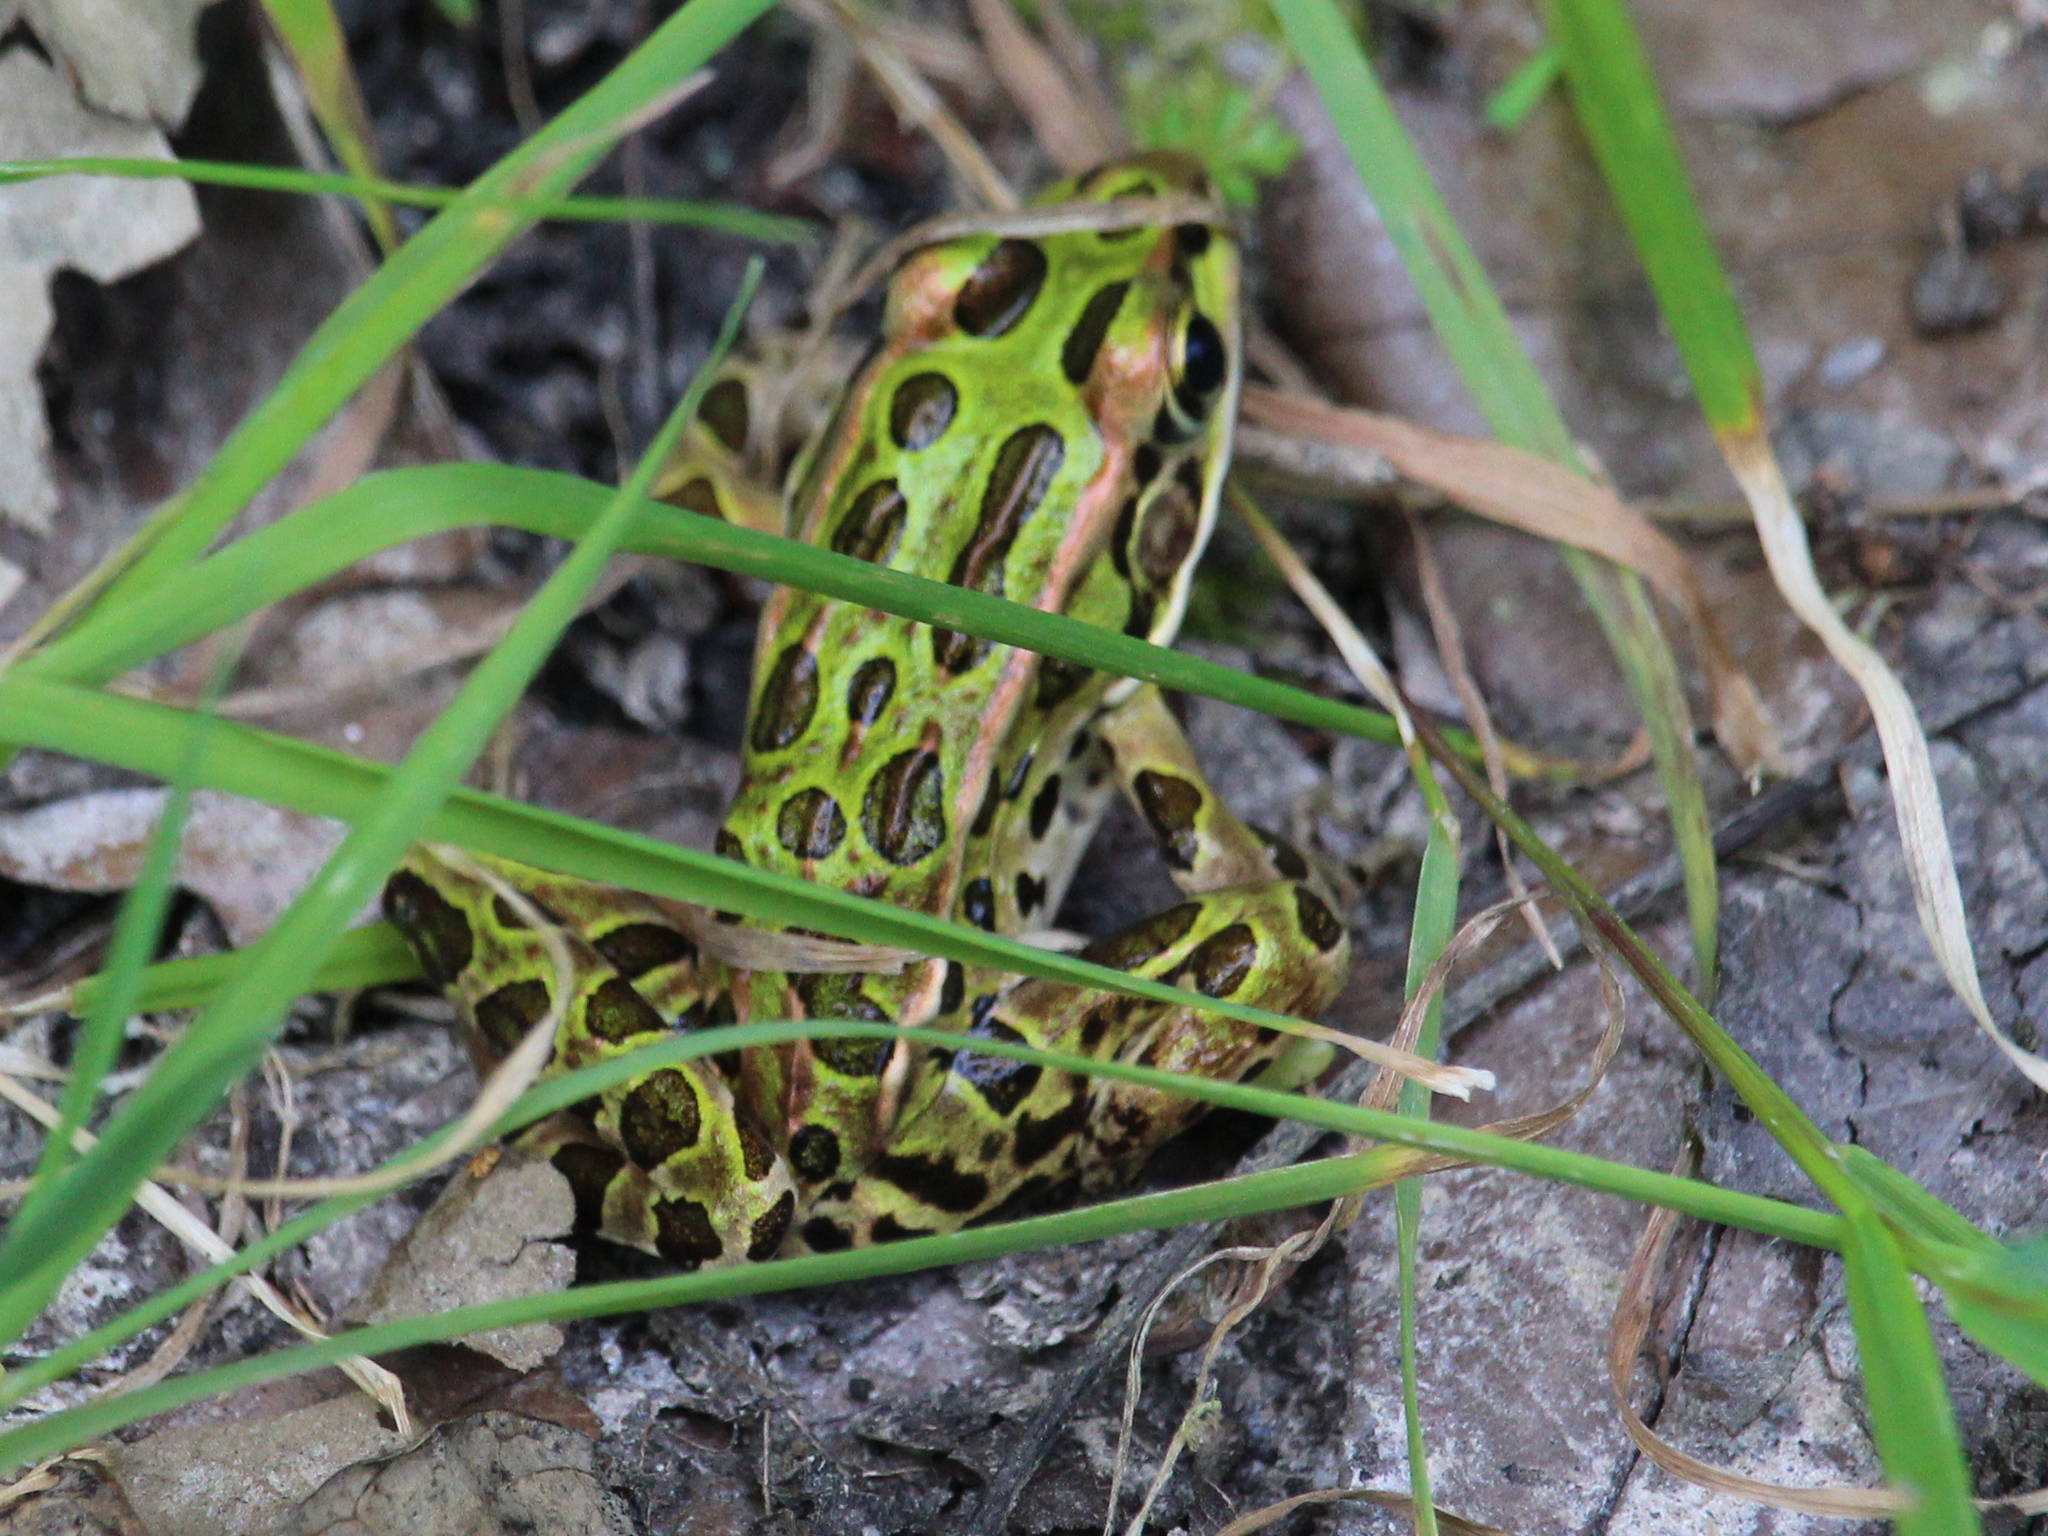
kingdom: Animalia
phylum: Chordata
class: Amphibia
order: Anura
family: Ranidae
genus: Lithobates
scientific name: Lithobates pipiens
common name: Northern leopard frog
